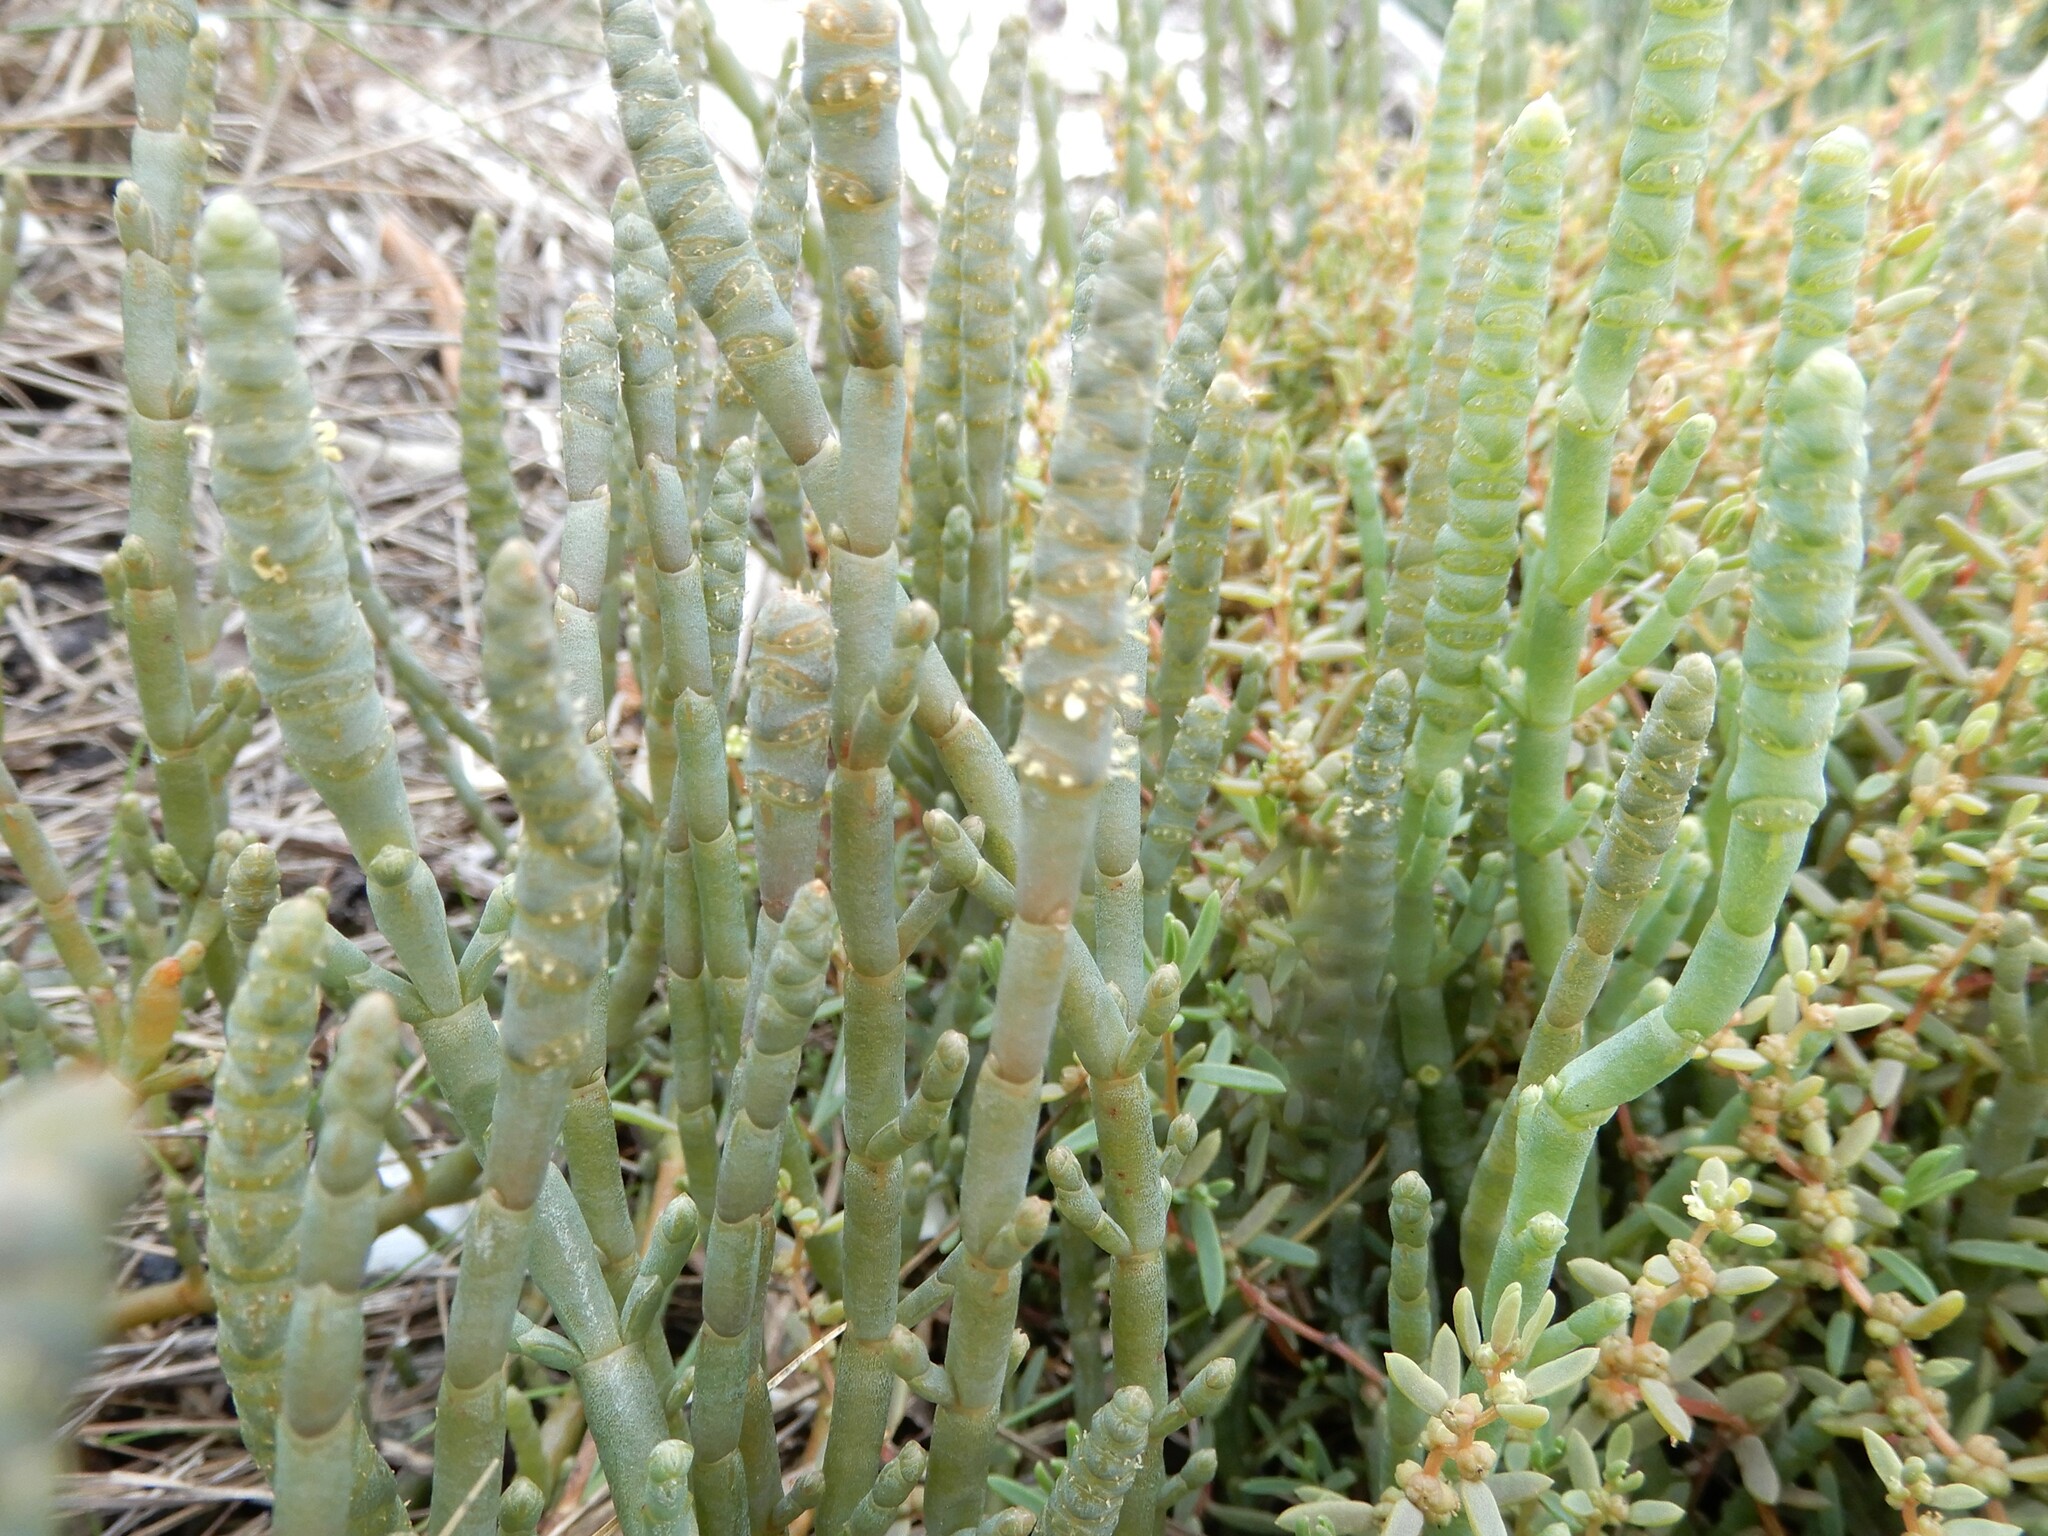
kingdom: Plantae
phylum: Tracheophyta
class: Magnoliopsida
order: Caryophyllales
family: Amaranthaceae
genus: Salicornia
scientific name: Salicornia quinqueflora
